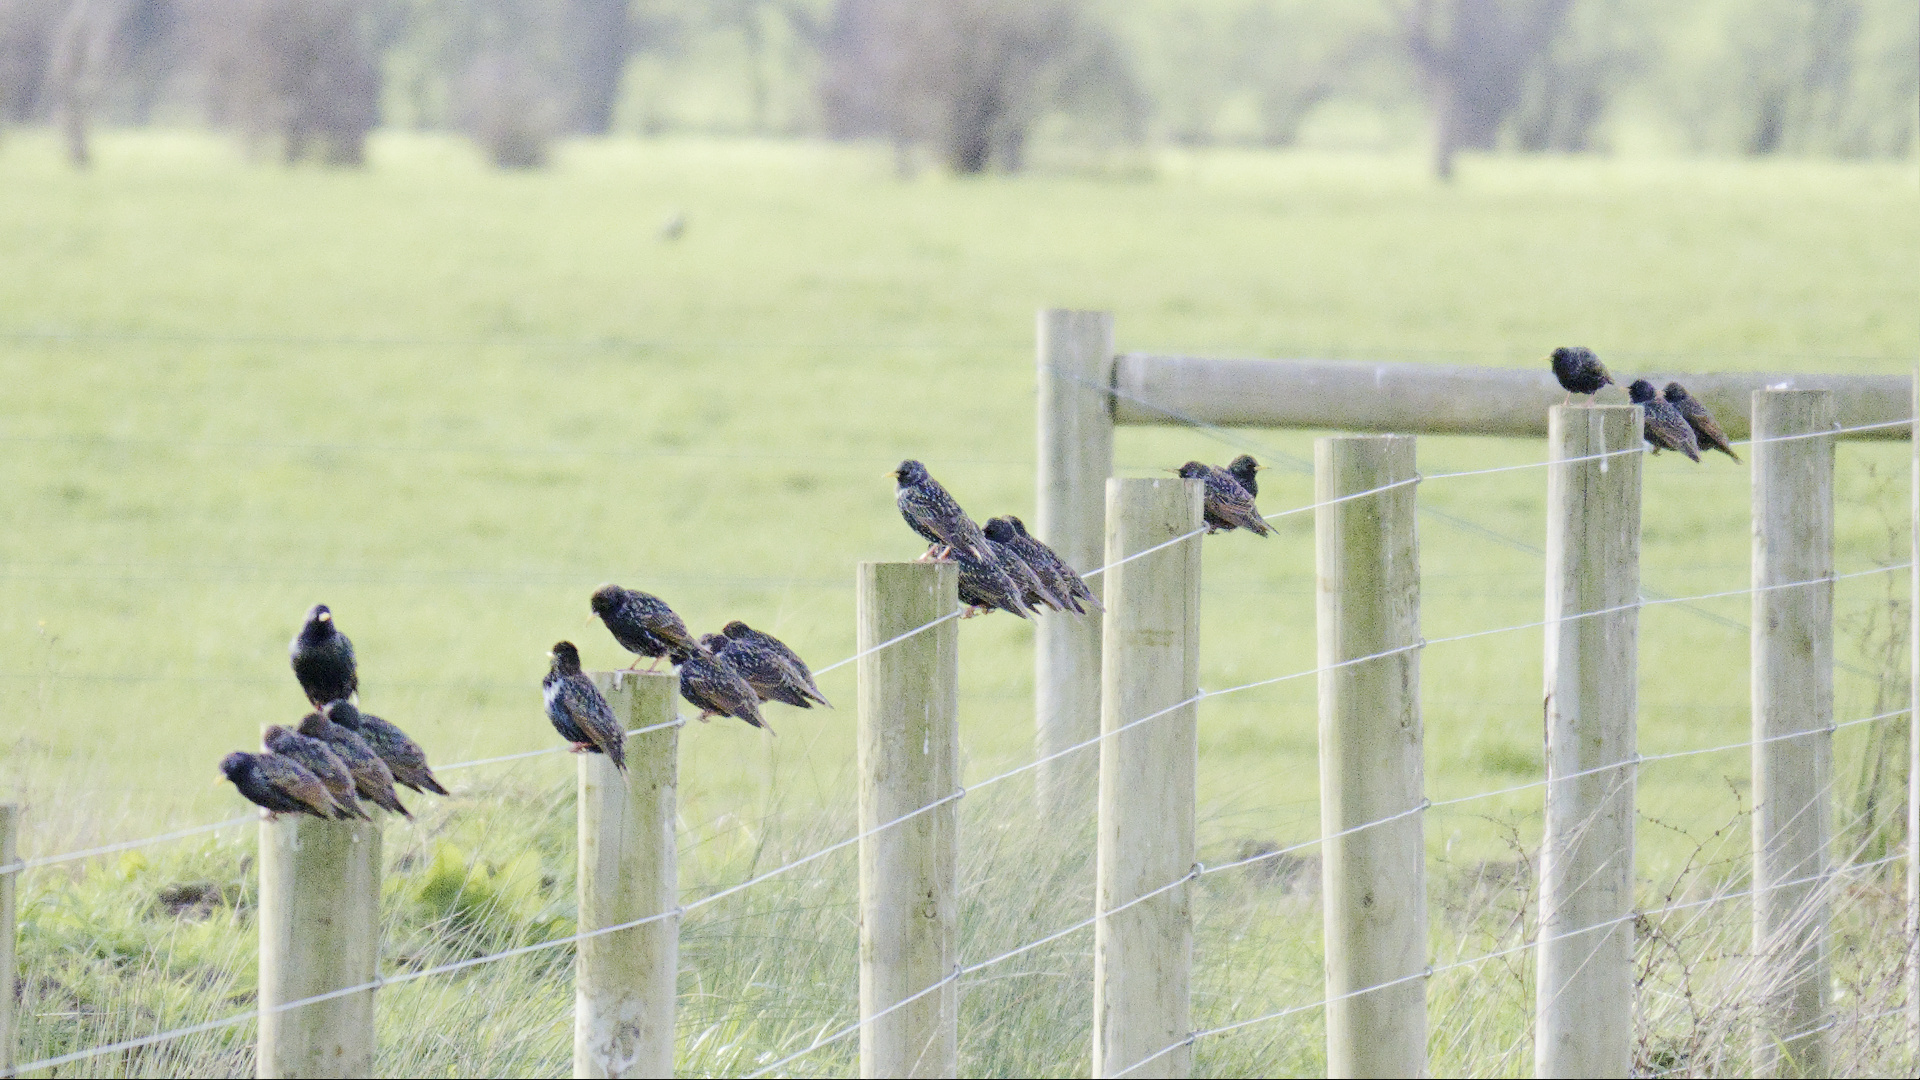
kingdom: Animalia
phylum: Chordata
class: Aves
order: Passeriformes
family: Sturnidae
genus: Sturnus
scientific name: Sturnus vulgaris
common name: Common starling
